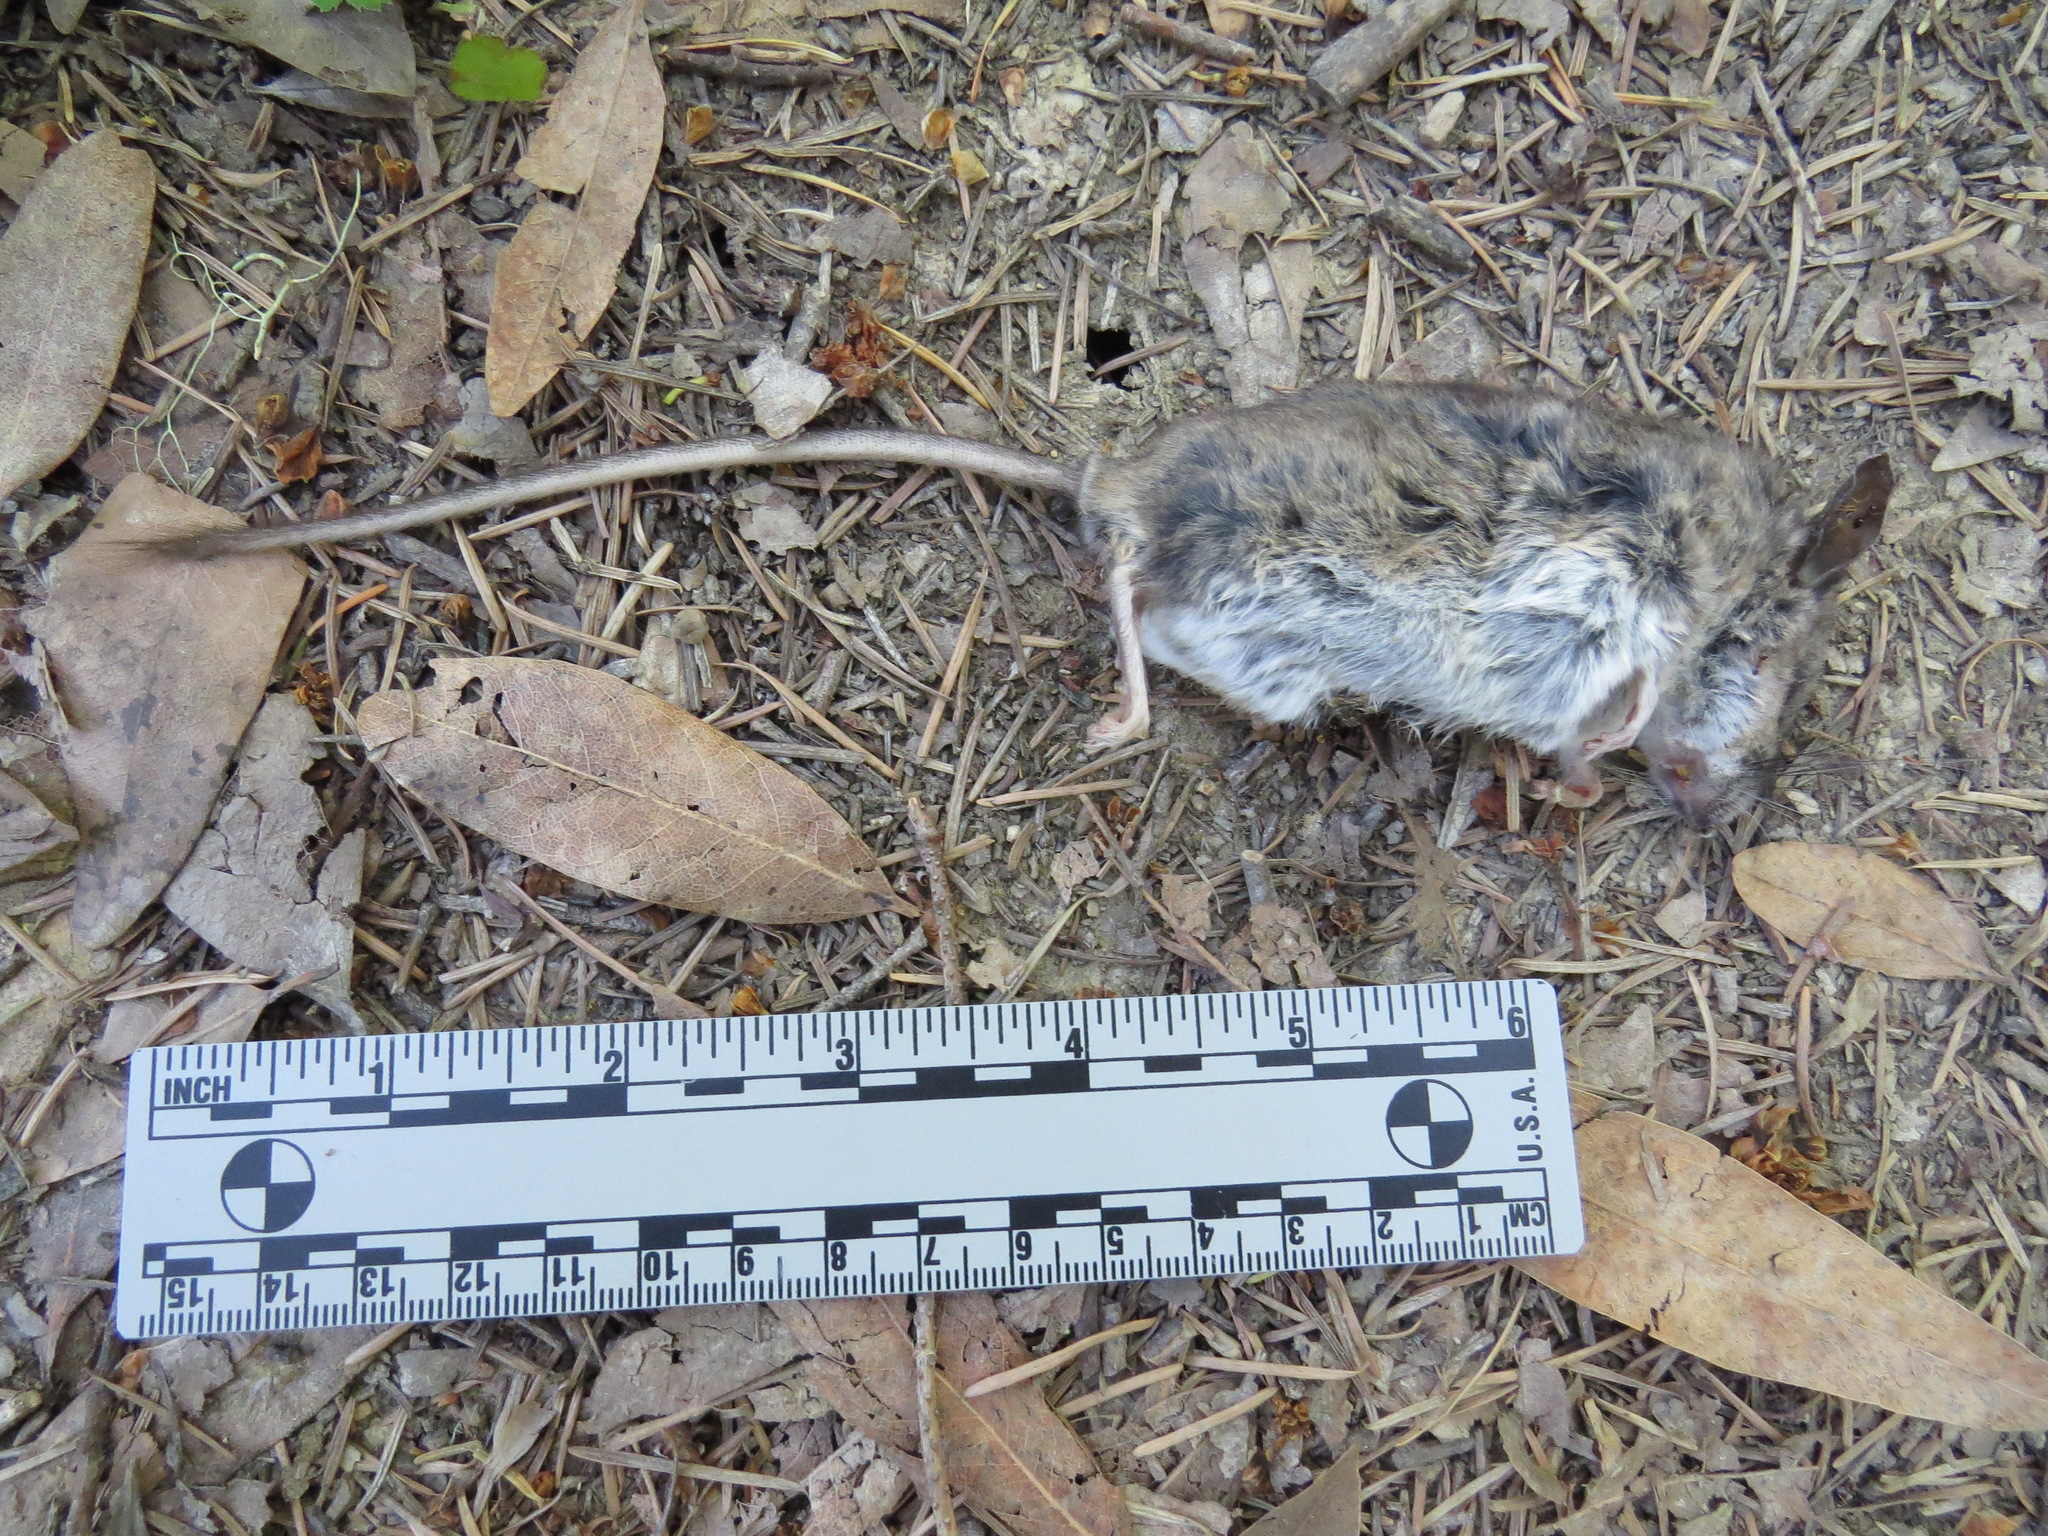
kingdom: Animalia
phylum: Chordata
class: Mammalia
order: Rodentia
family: Cricetidae
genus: Peromyscus
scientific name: Peromyscus californicus
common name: California deermouse
